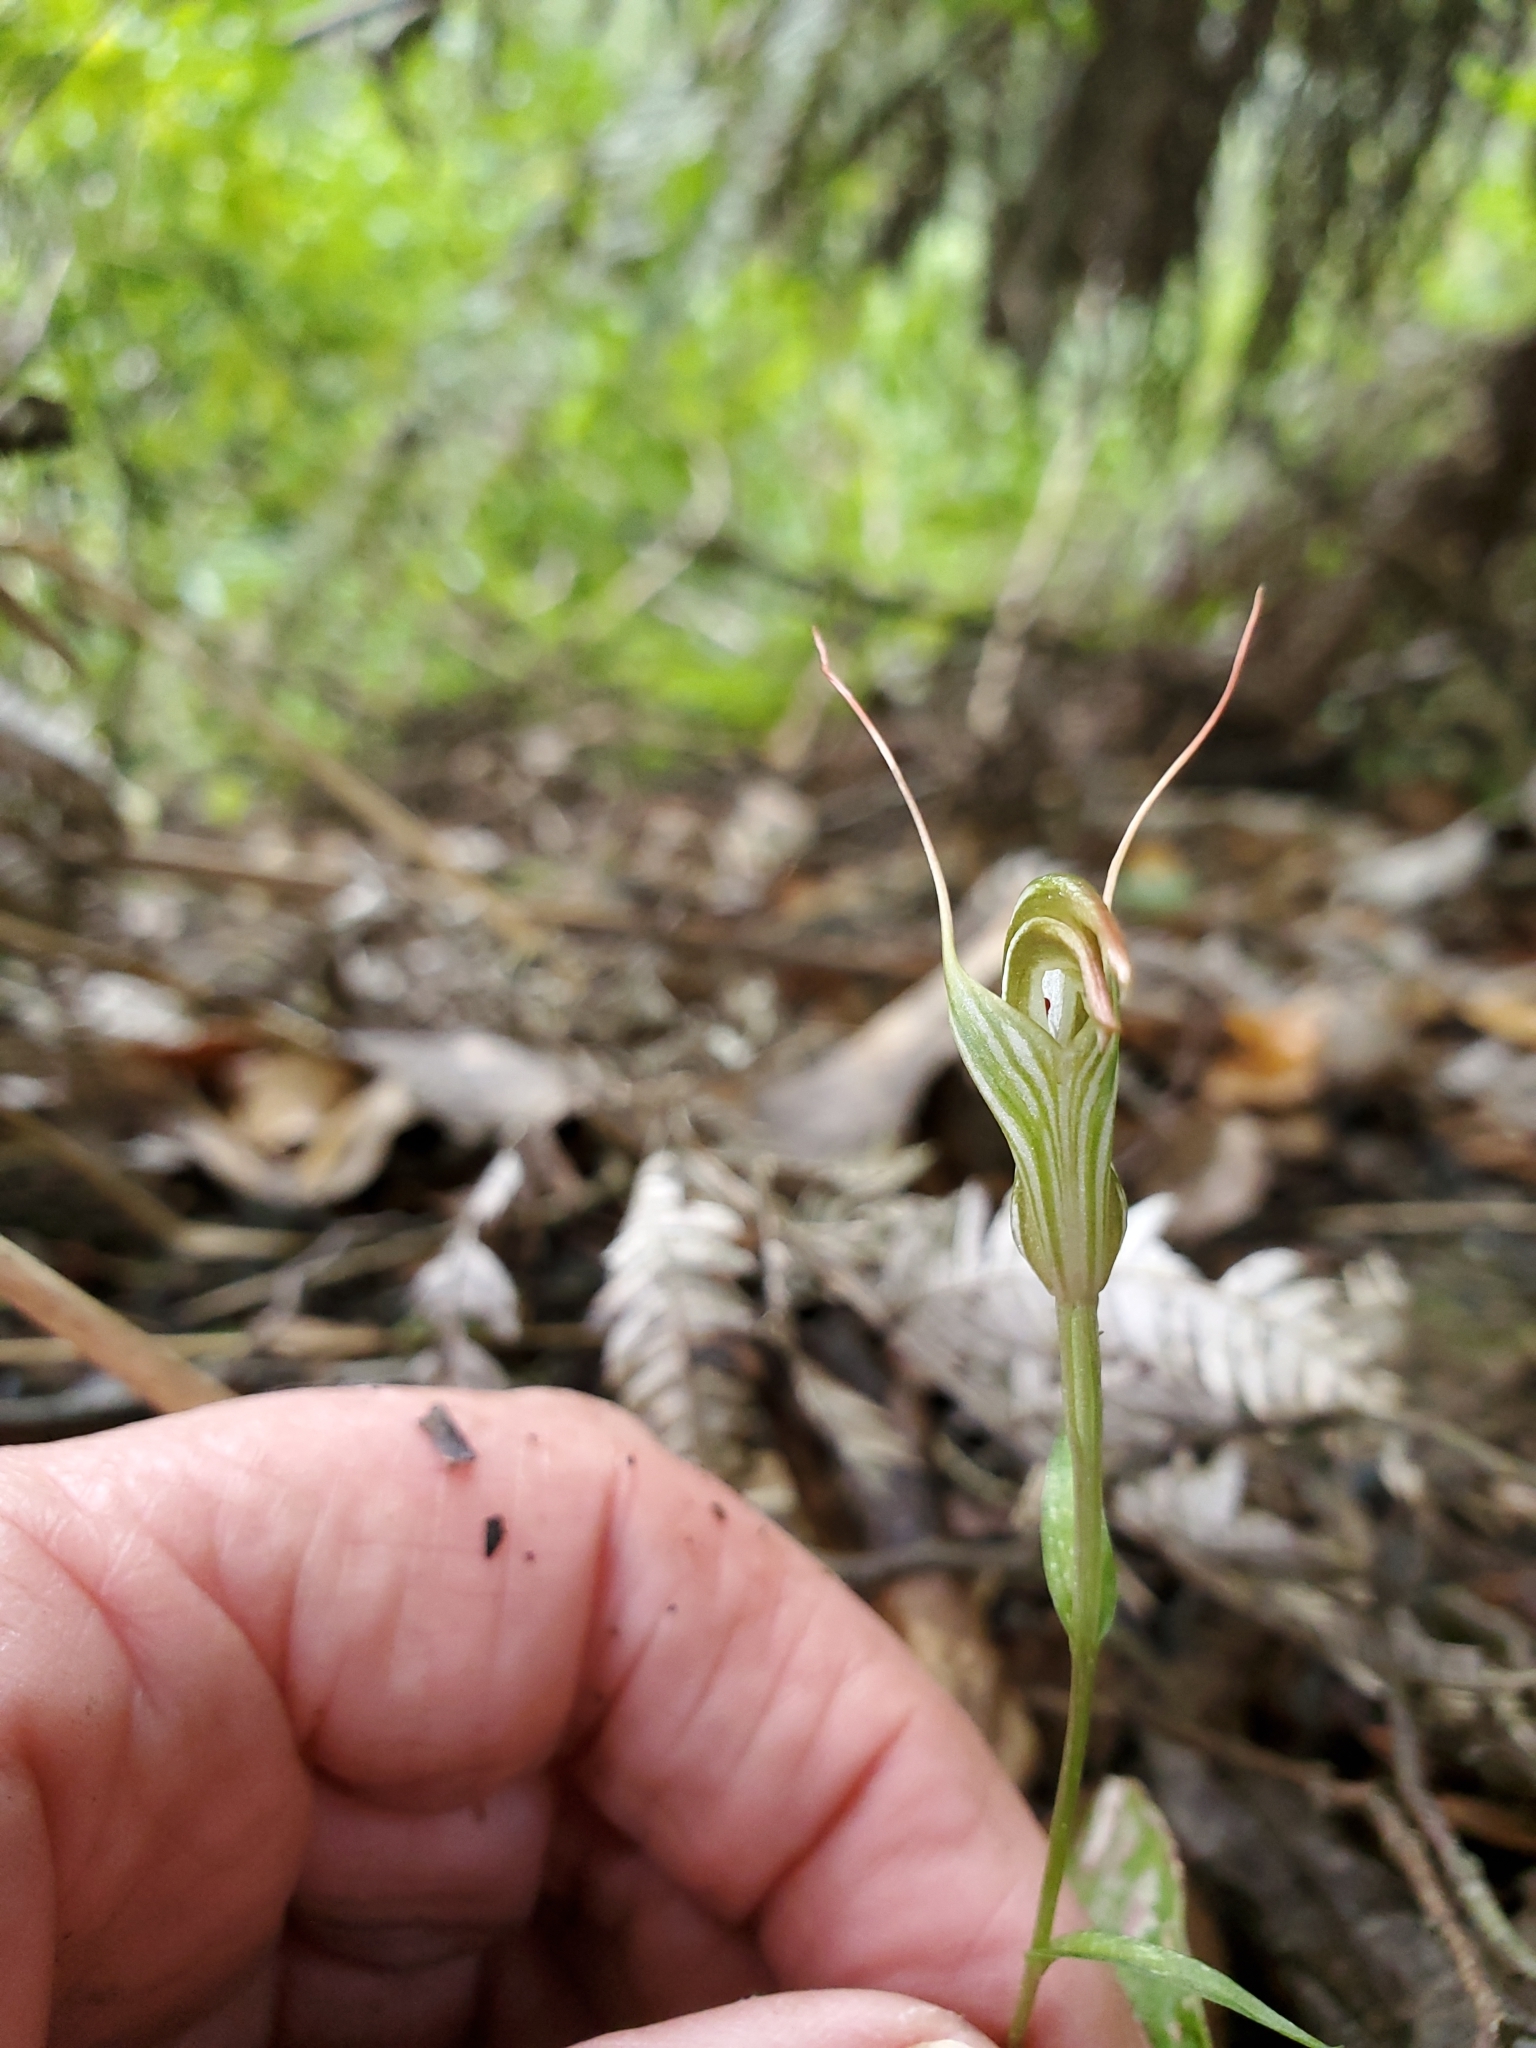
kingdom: Plantae
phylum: Tracheophyta
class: Liliopsida
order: Asparagales
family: Orchidaceae
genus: Pterostylis
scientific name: Pterostylis alobula
